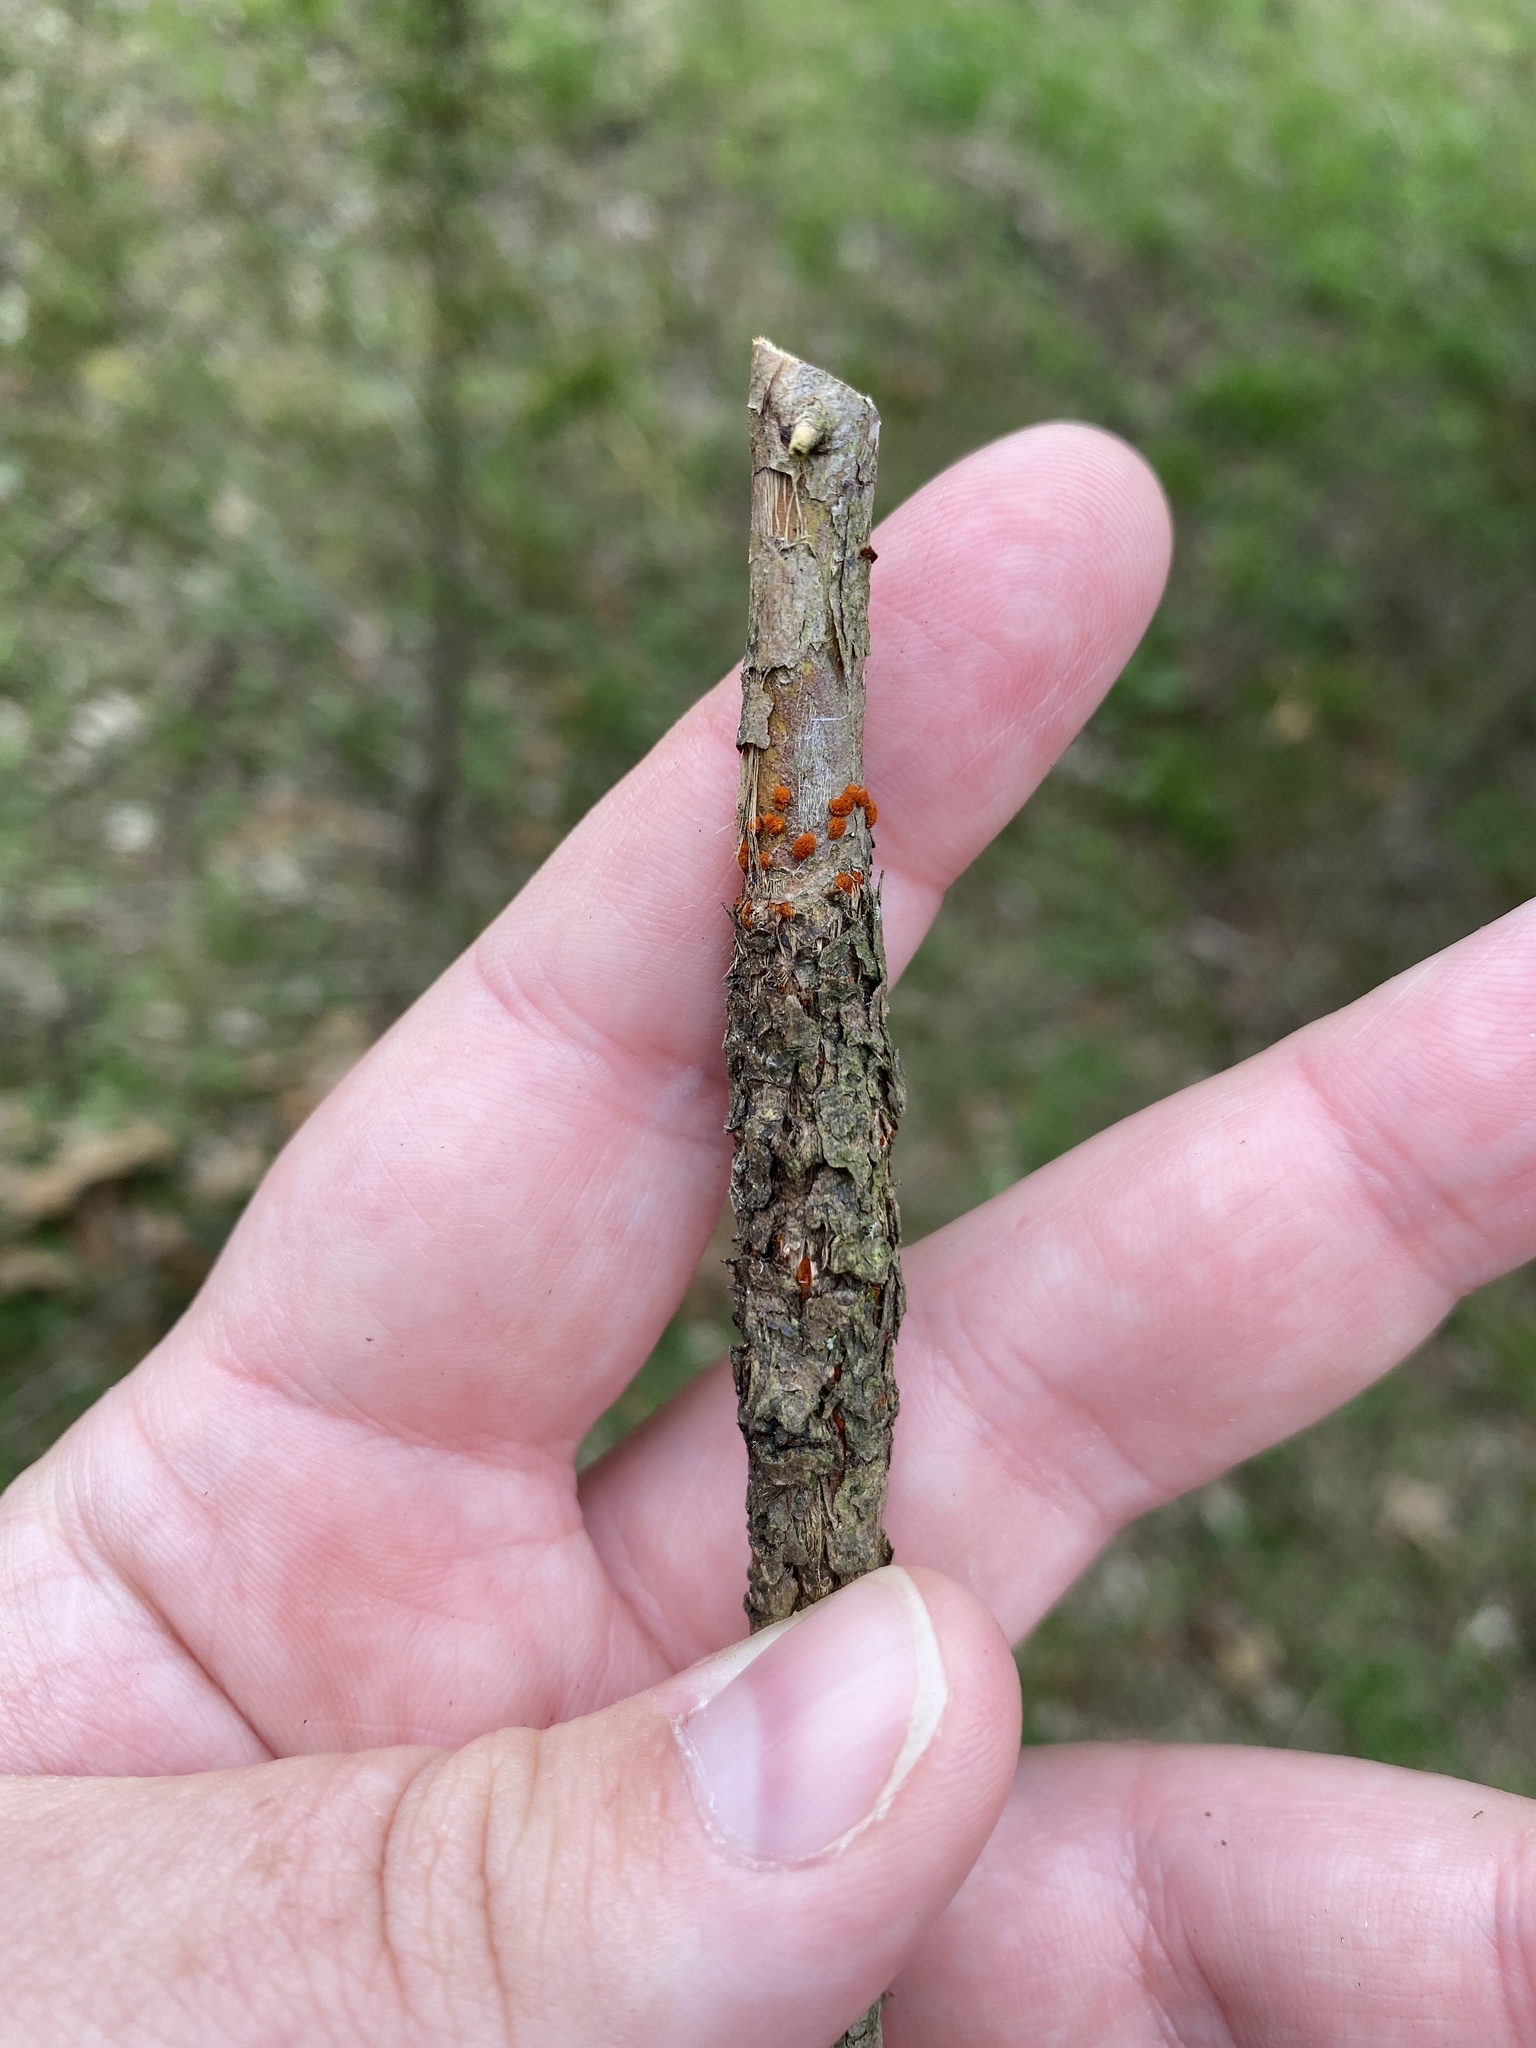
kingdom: Fungi
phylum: Ascomycota
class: Sordariomycetes
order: Diaporthales
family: Cryphonectriaceae
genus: Amphilogia
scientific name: Amphilogia gyrosa
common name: Orange hobnail canker
